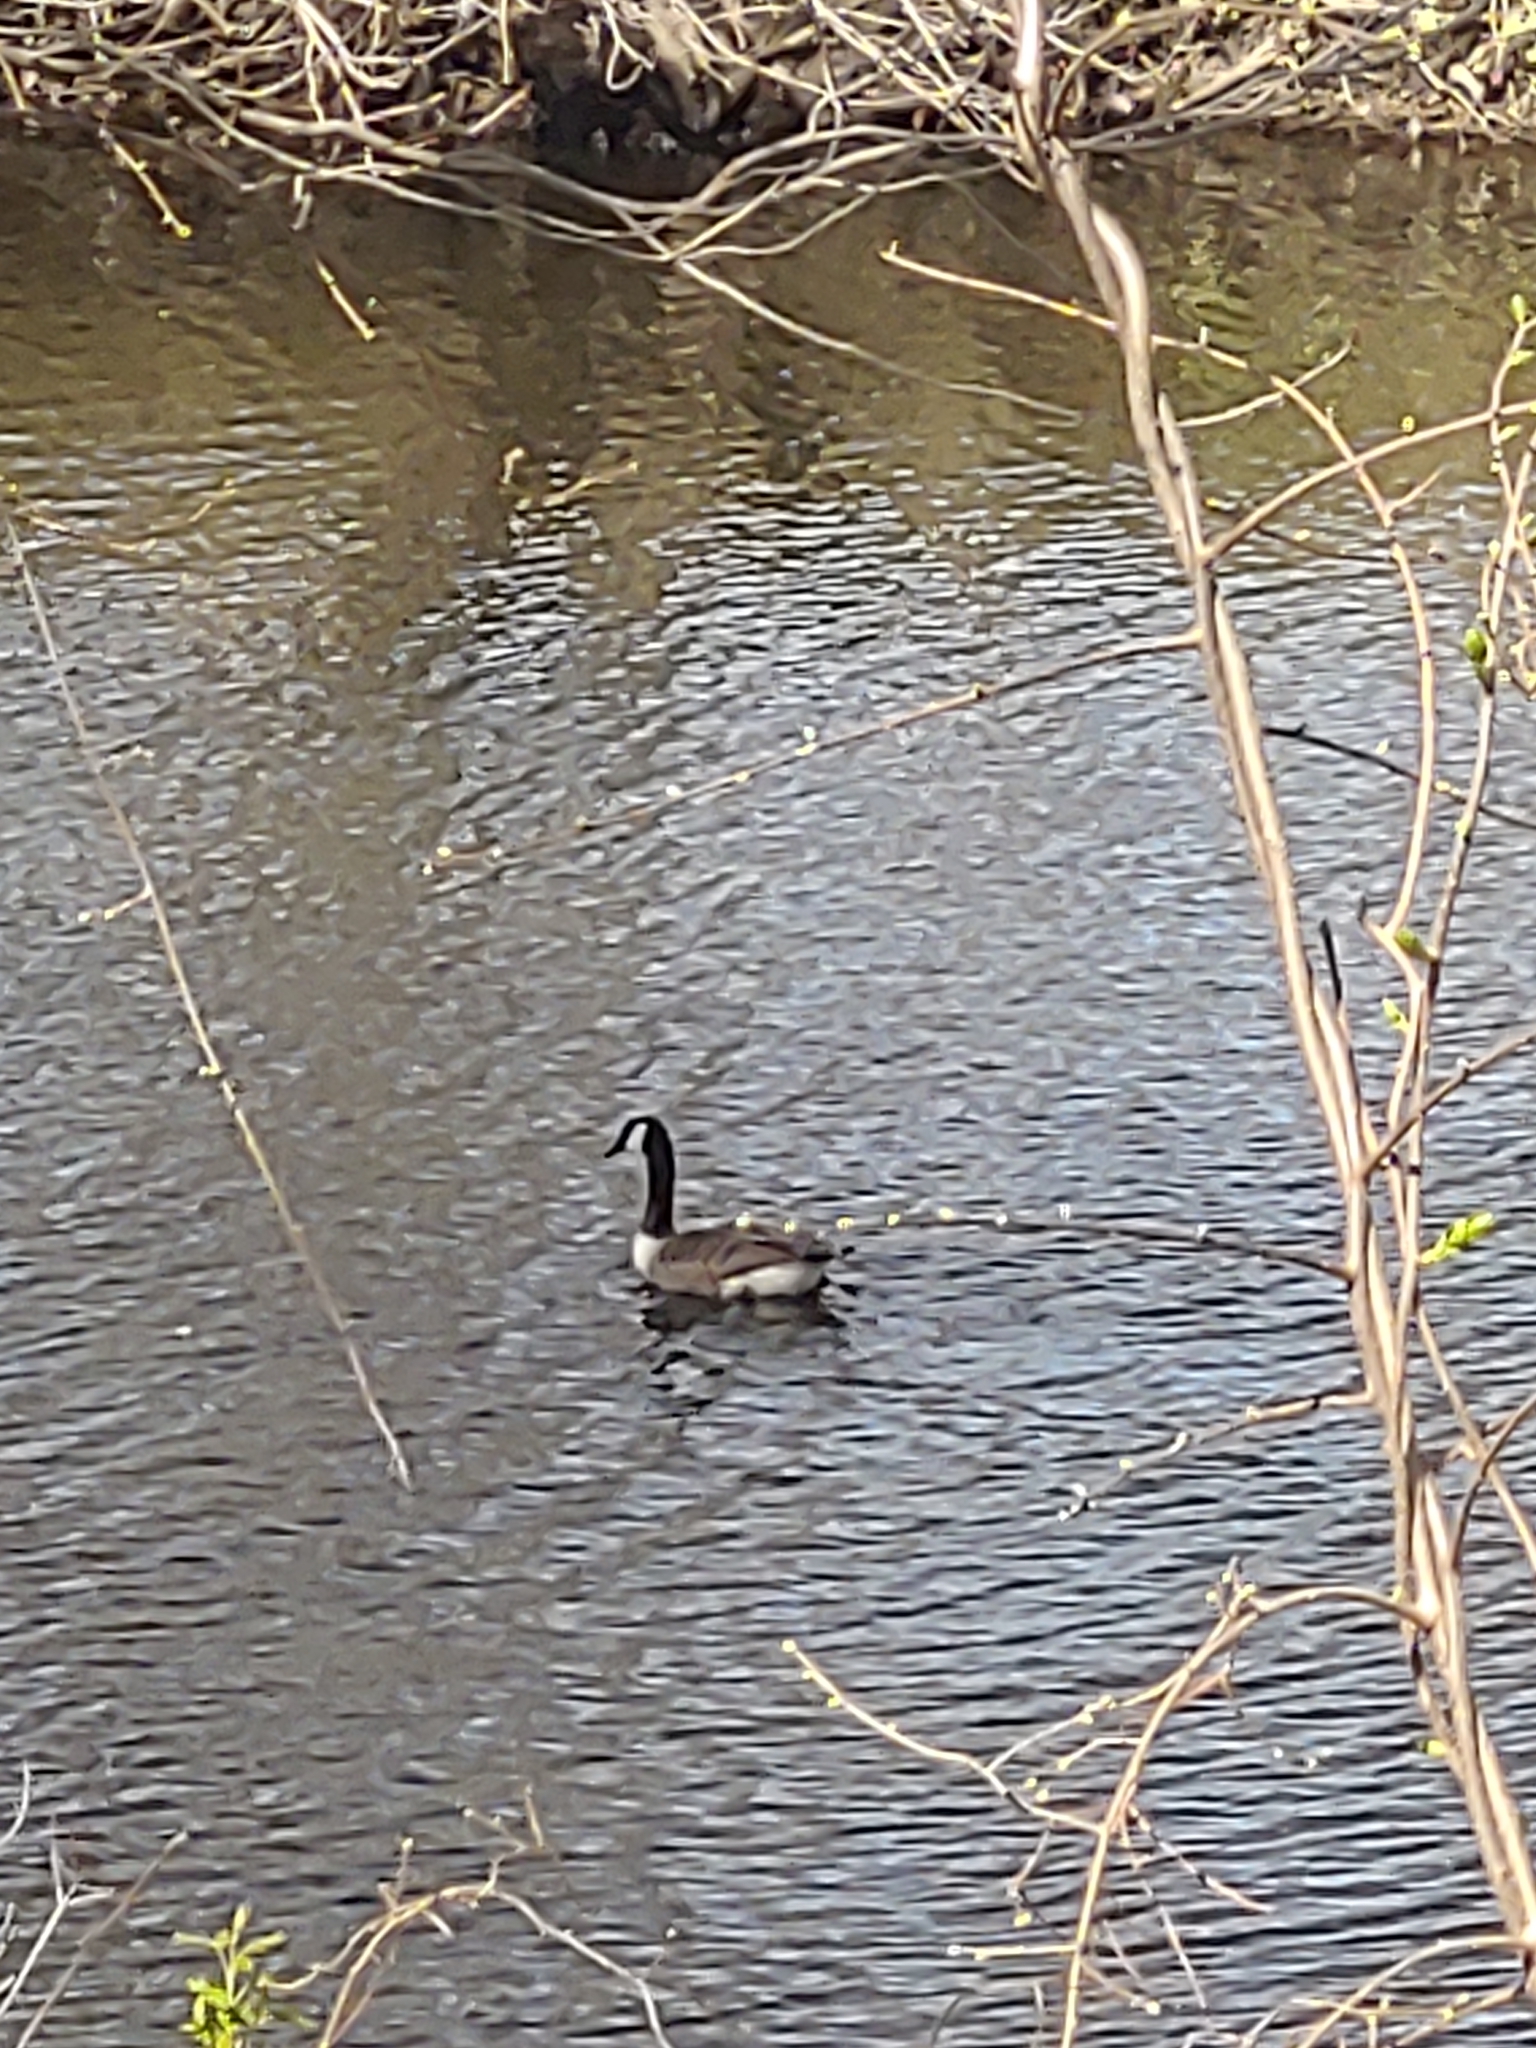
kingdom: Animalia
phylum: Chordata
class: Aves
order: Anseriformes
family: Anatidae
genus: Branta
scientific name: Branta canadensis
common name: Canada goose
